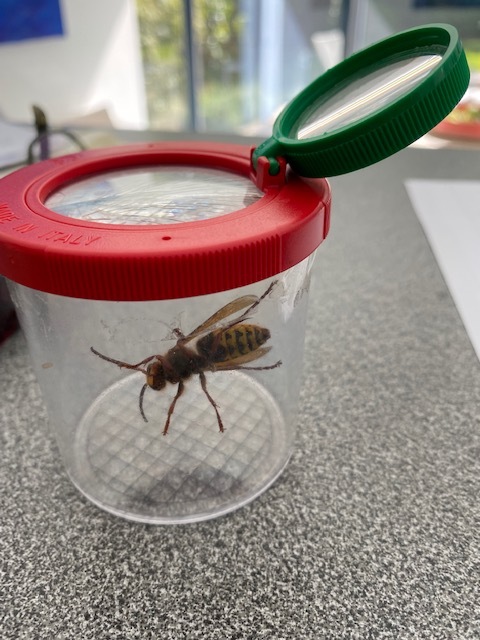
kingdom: Animalia
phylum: Arthropoda
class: Insecta
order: Hymenoptera
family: Vespidae
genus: Vespa
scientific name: Vespa crabro
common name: Hornet
